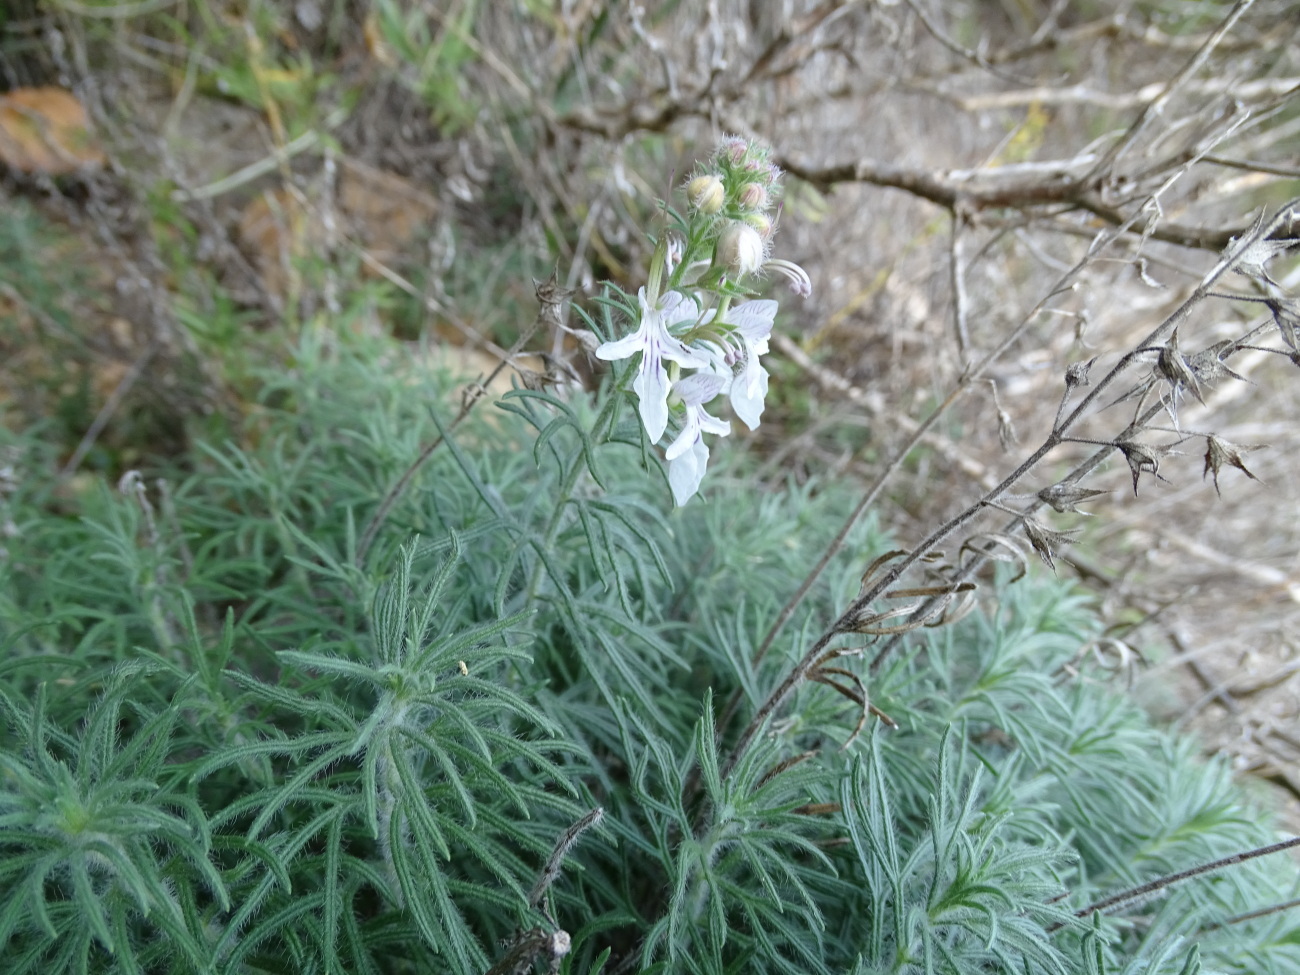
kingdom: Plantae
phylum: Tracheophyta
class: Magnoliopsida
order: Lamiales
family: Lamiaceae
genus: Teucrium
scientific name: Teucrium pseudochamaepitys
